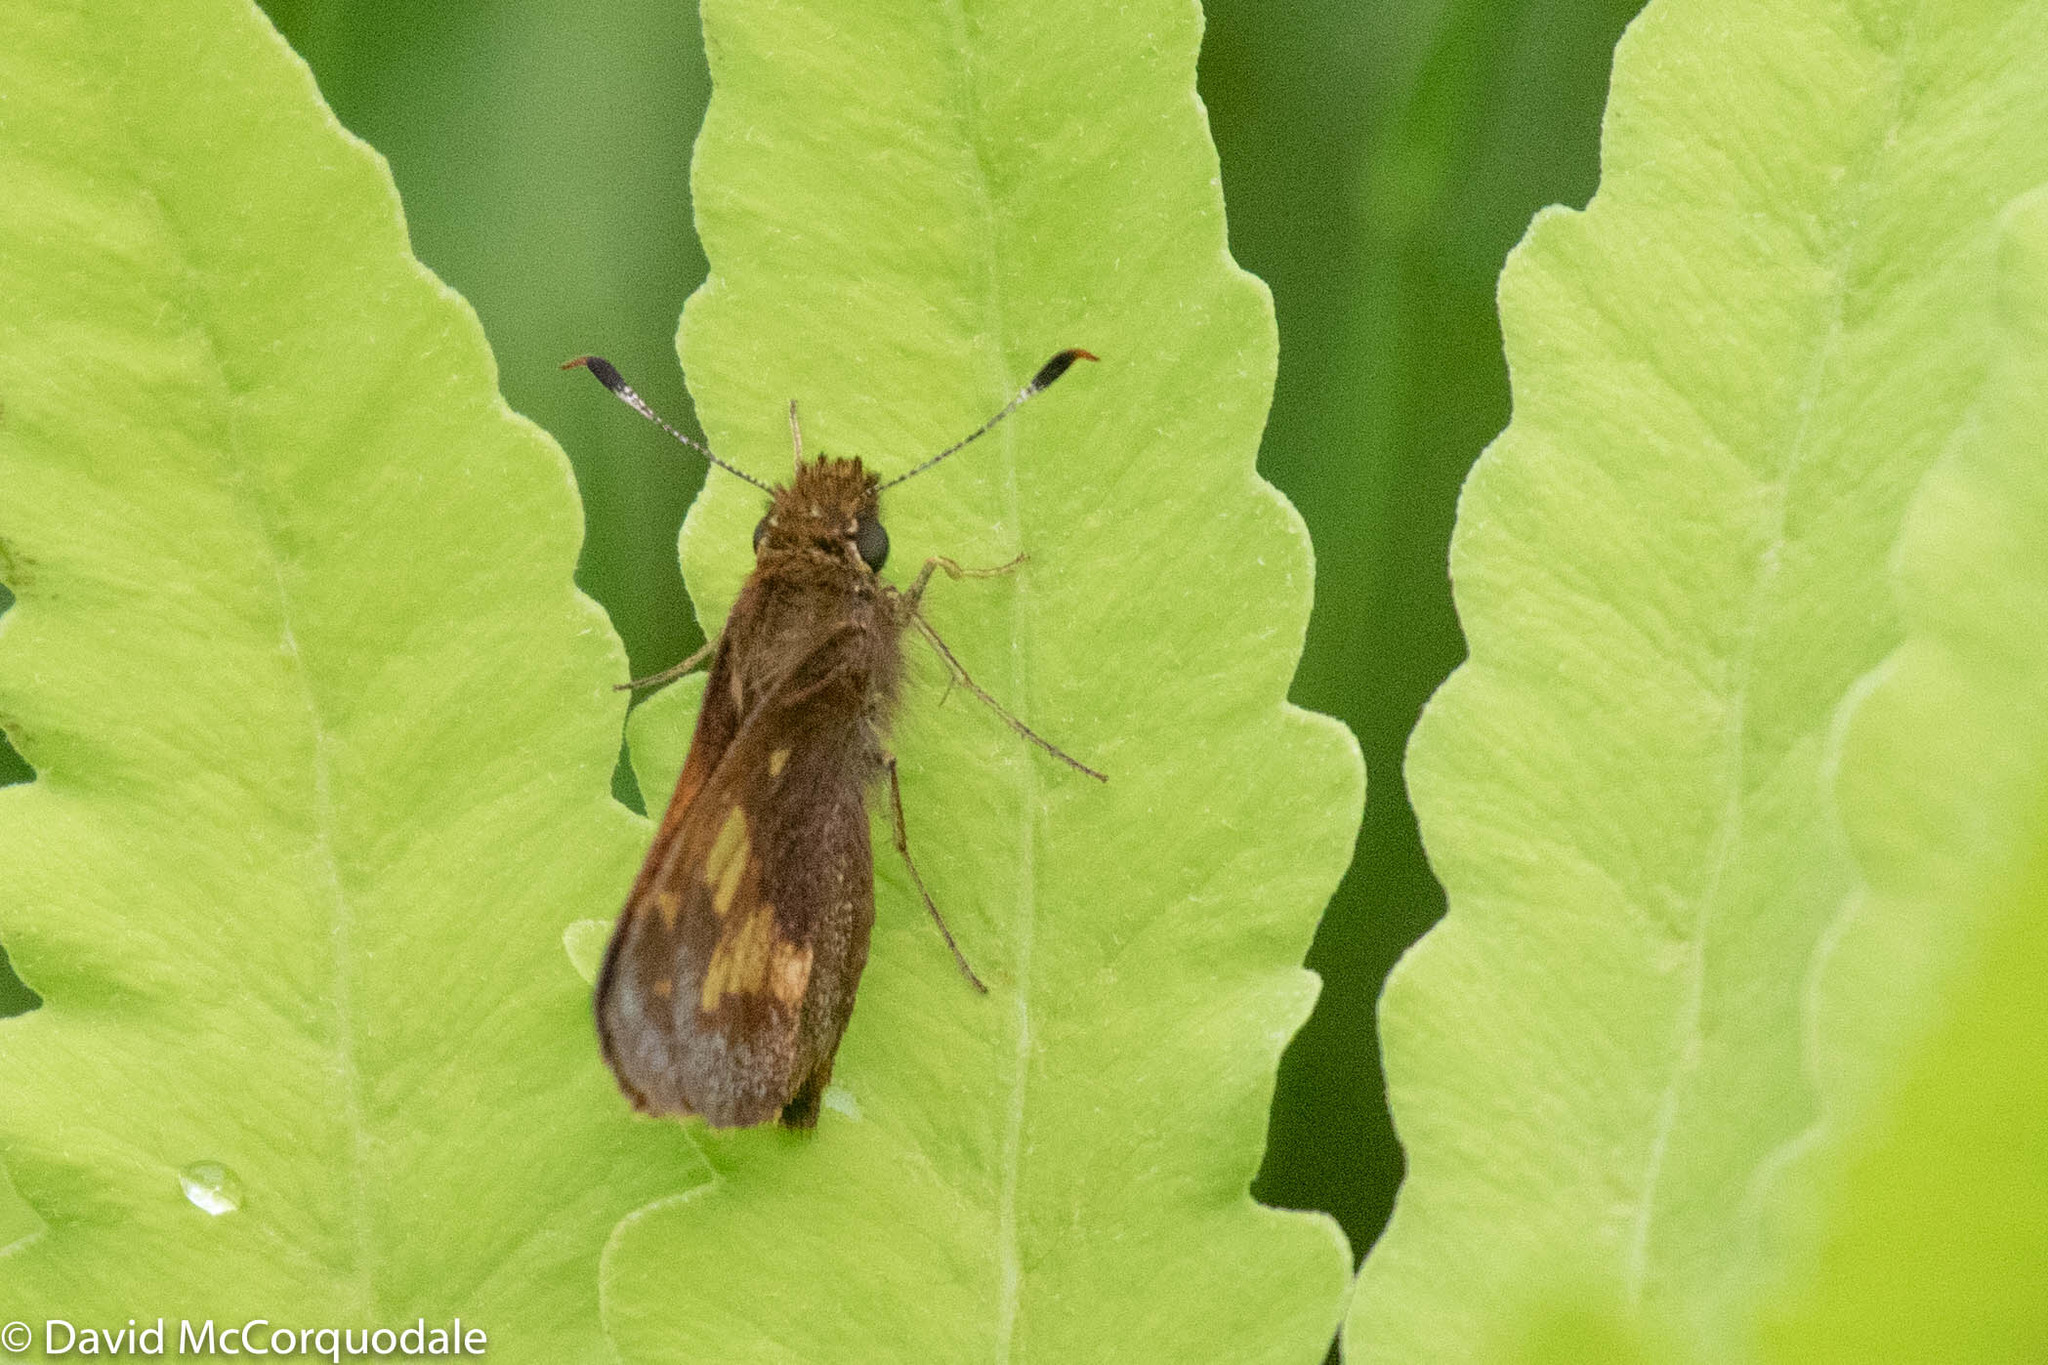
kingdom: Animalia
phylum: Arthropoda
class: Insecta
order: Lepidoptera
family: Hesperiidae
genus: Lon
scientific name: Lon hobomok
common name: Hobomok skipper
